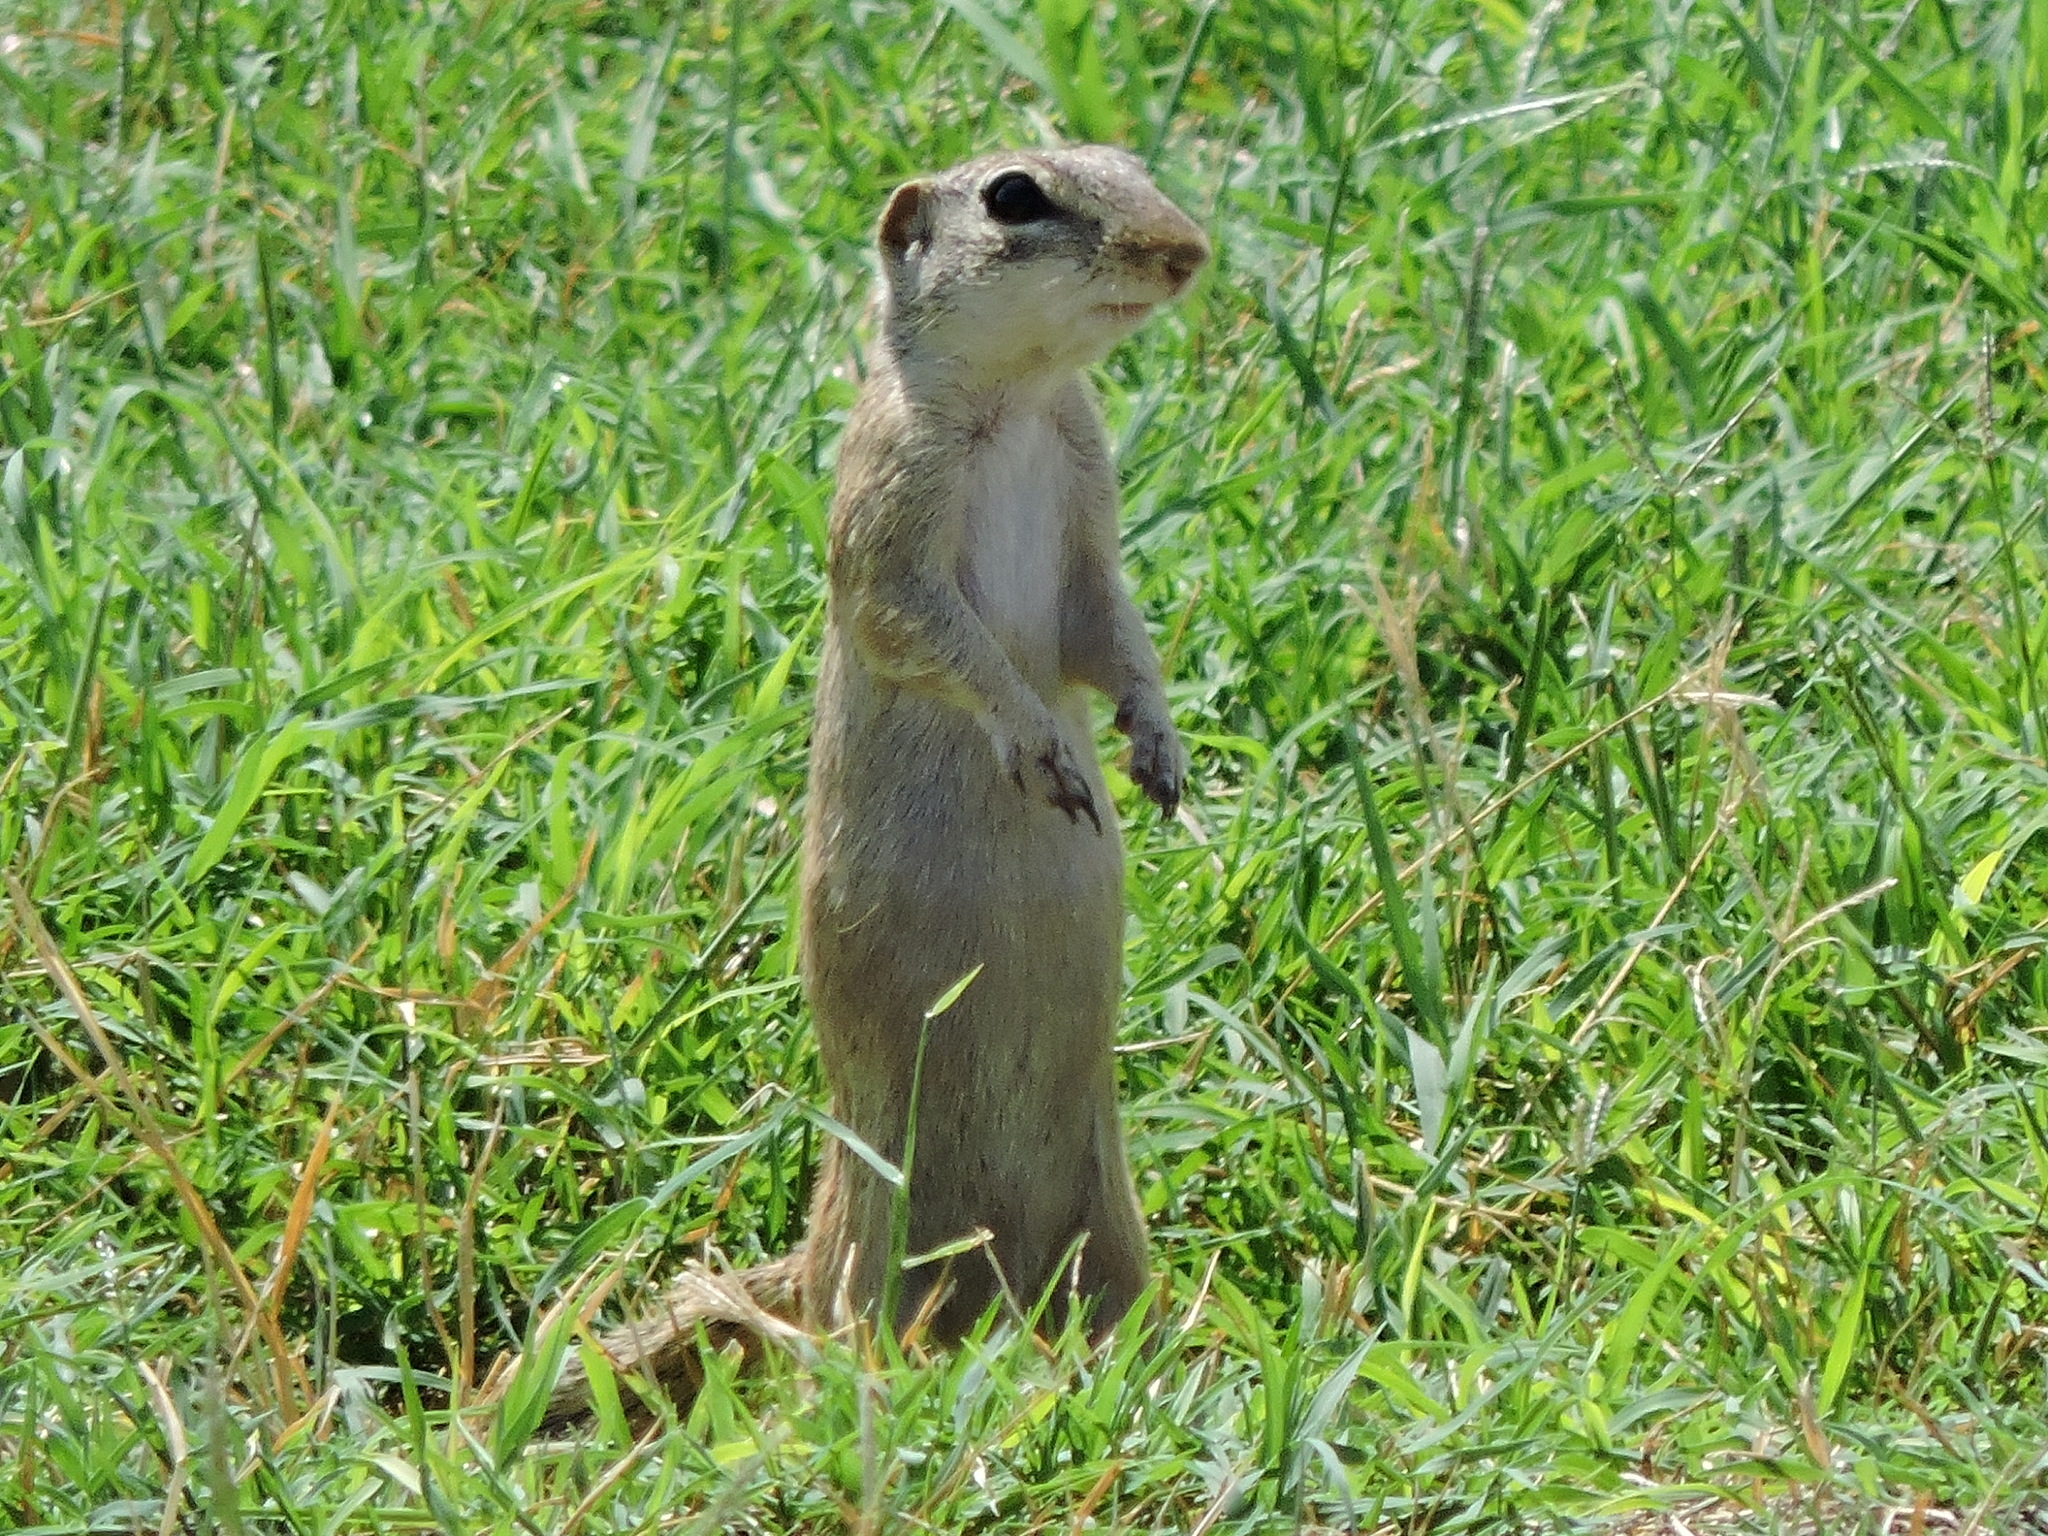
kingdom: Animalia
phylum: Chordata
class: Mammalia
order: Rodentia
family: Sciuridae
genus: Ictidomys
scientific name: Ictidomys parvidens
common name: Rio grande ground squirrel
